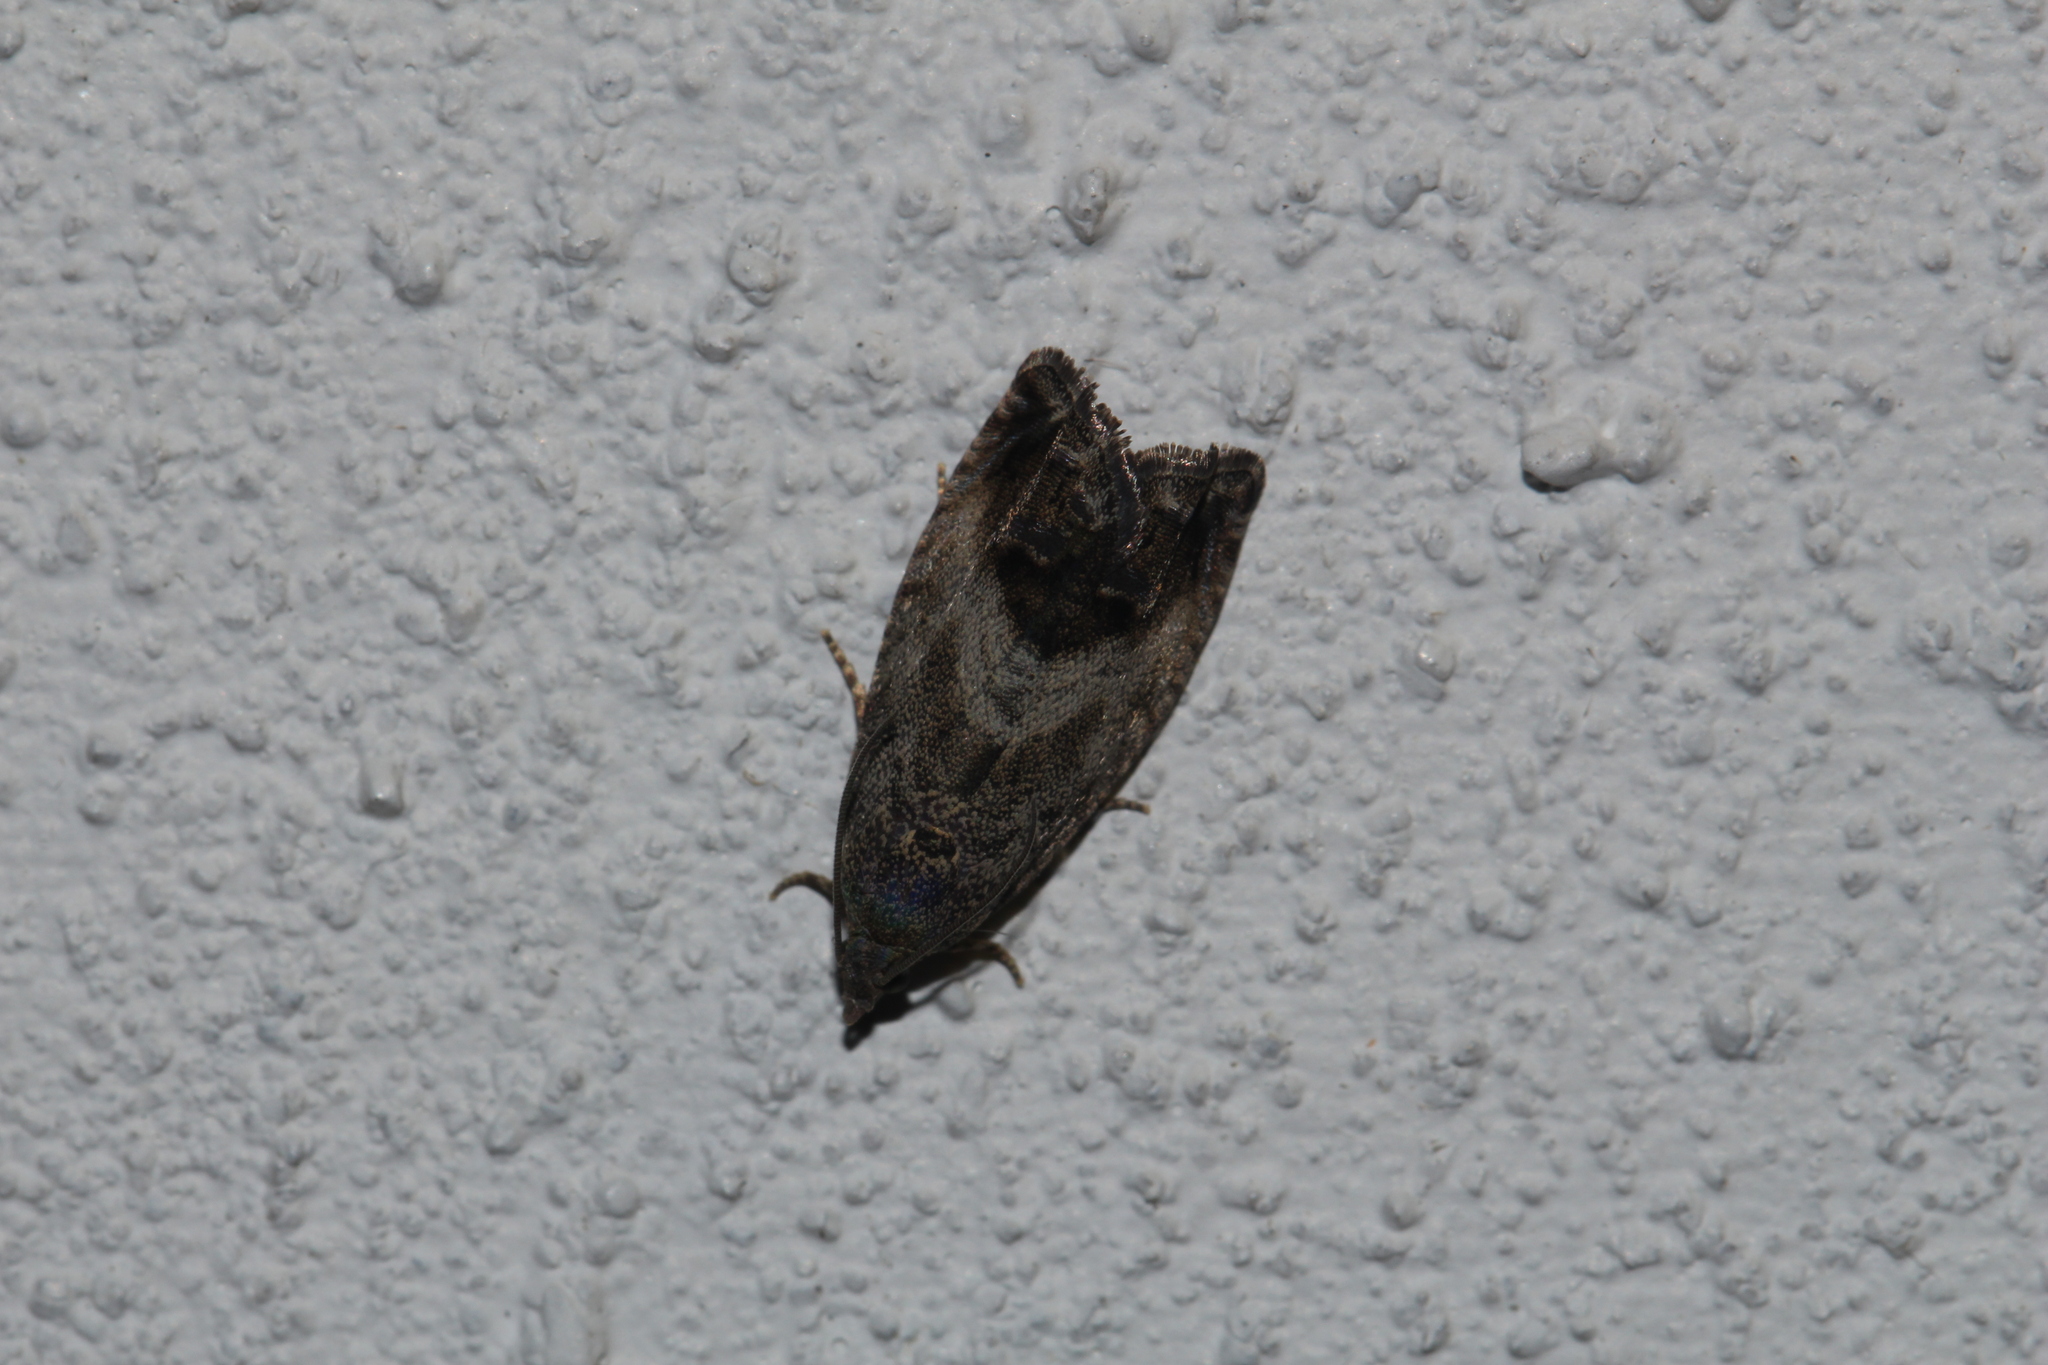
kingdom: Animalia
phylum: Arthropoda
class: Insecta
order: Lepidoptera
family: Tortricidae
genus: Cydia
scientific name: Cydia splendana
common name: De: kastanienwickler, eichenwickler es: oruga de la castaña fr: carpocapse des châtaignes it: cidia o tortrice tardiva delle castagne pt: bichado das castanhas gb: acorn moth, chestnut fruit tortrix
